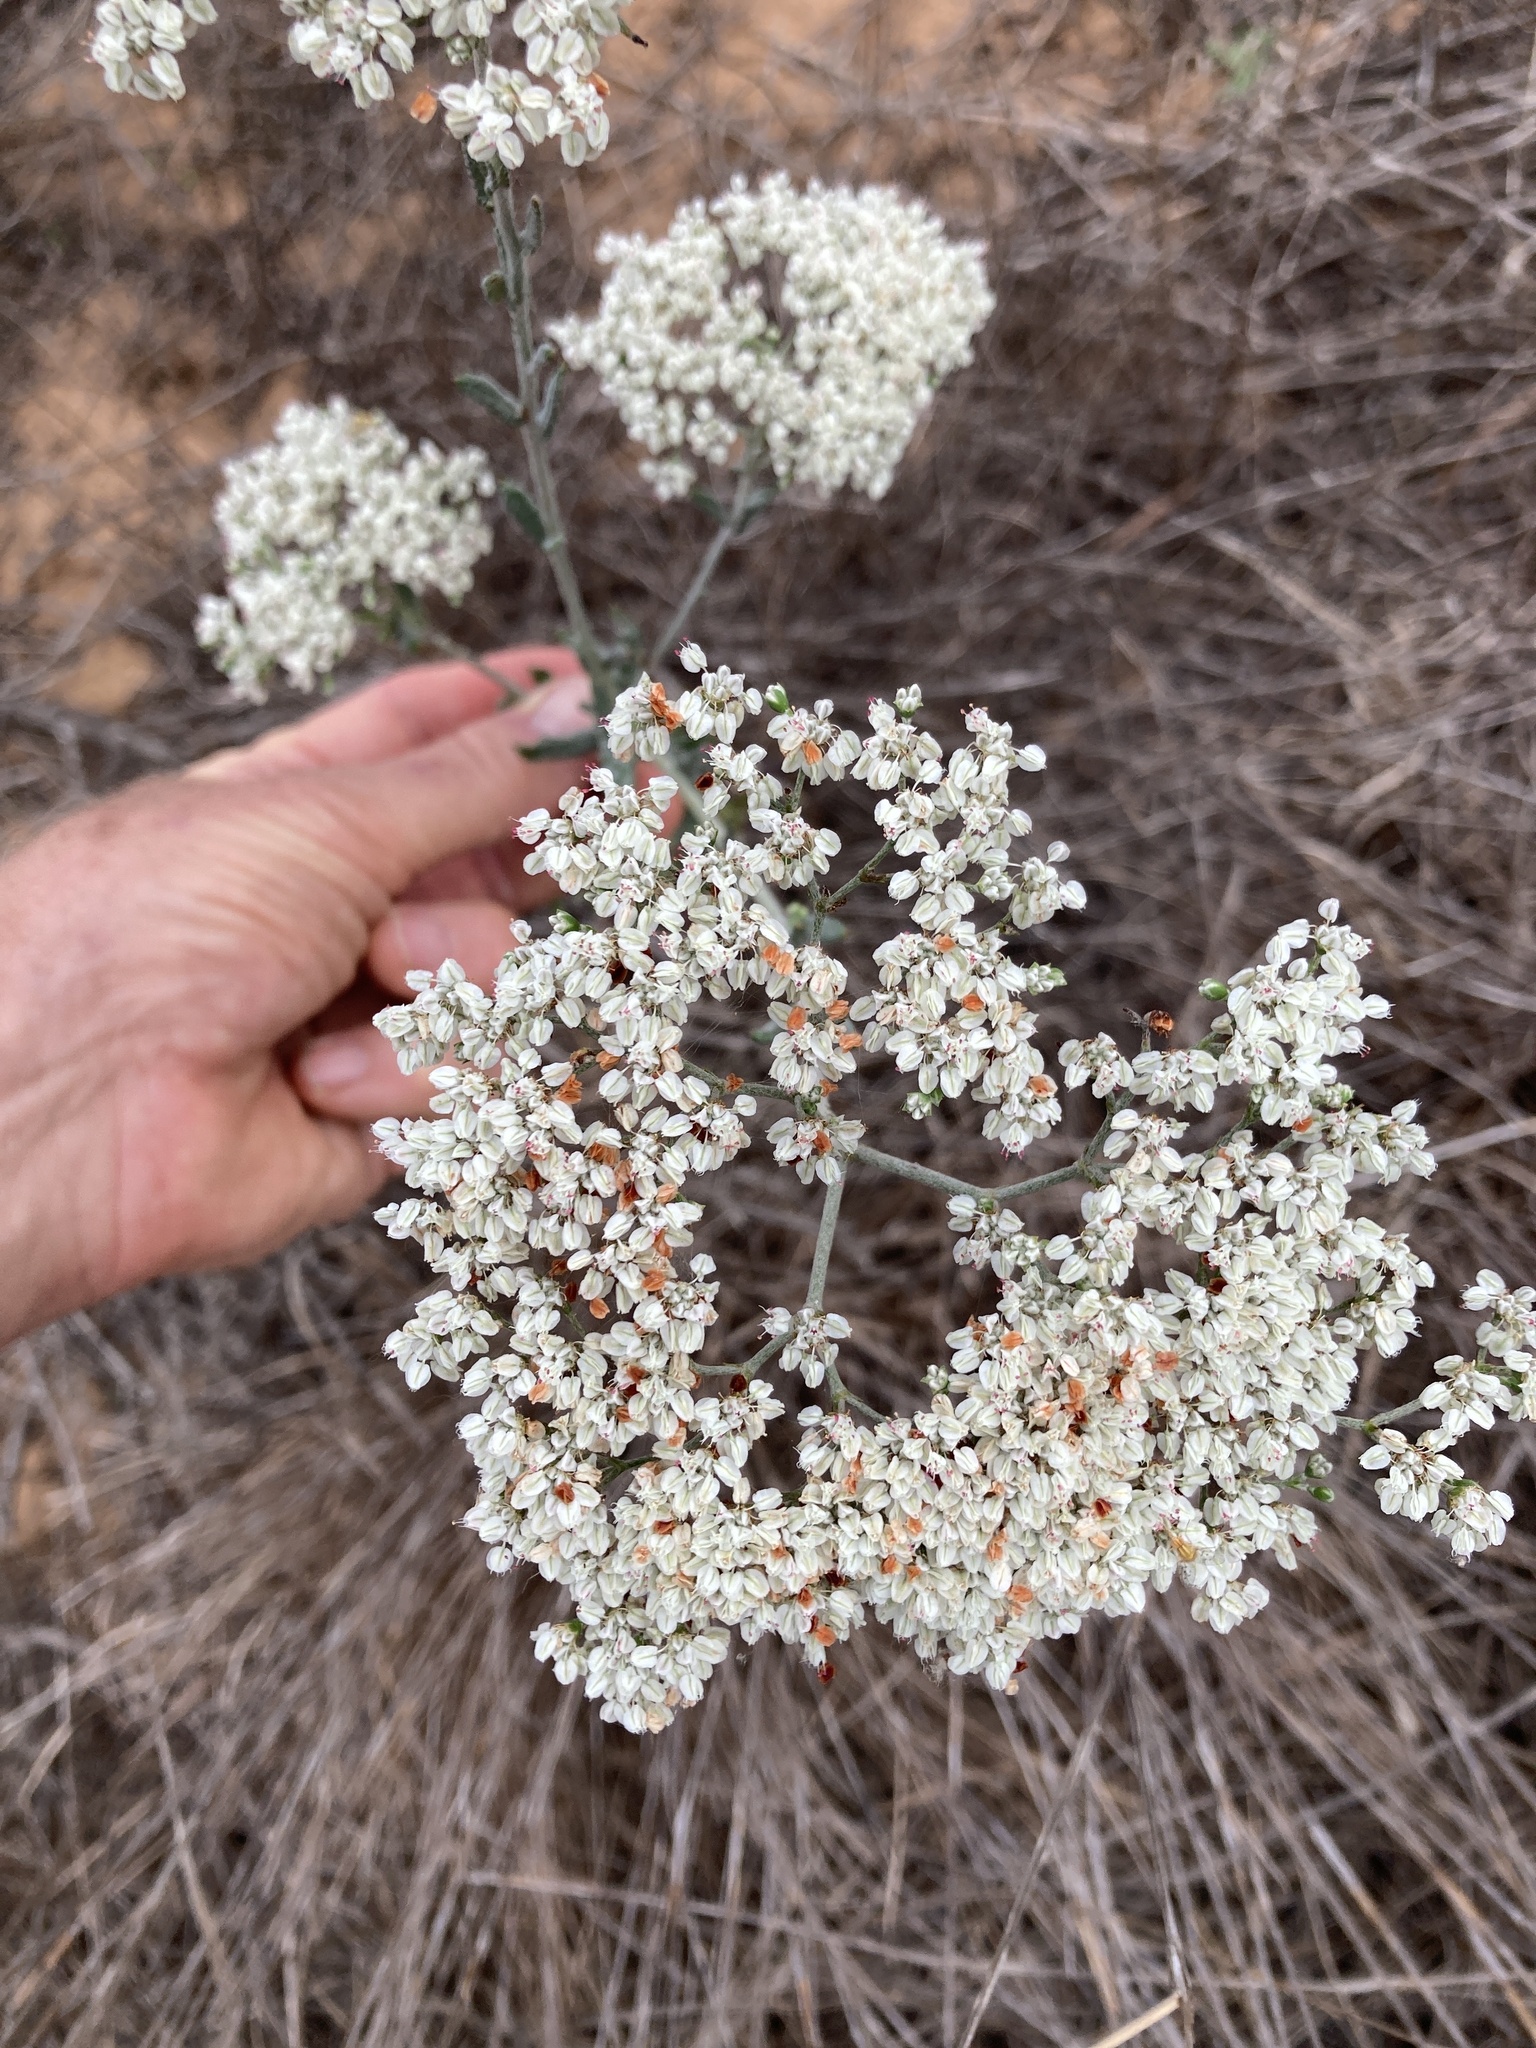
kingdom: Plantae
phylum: Tracheophyta
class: Magnoliopsida
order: Caryophyllales
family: Polygonaceae
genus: Eriogonum
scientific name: Eriogonum multiflorum
